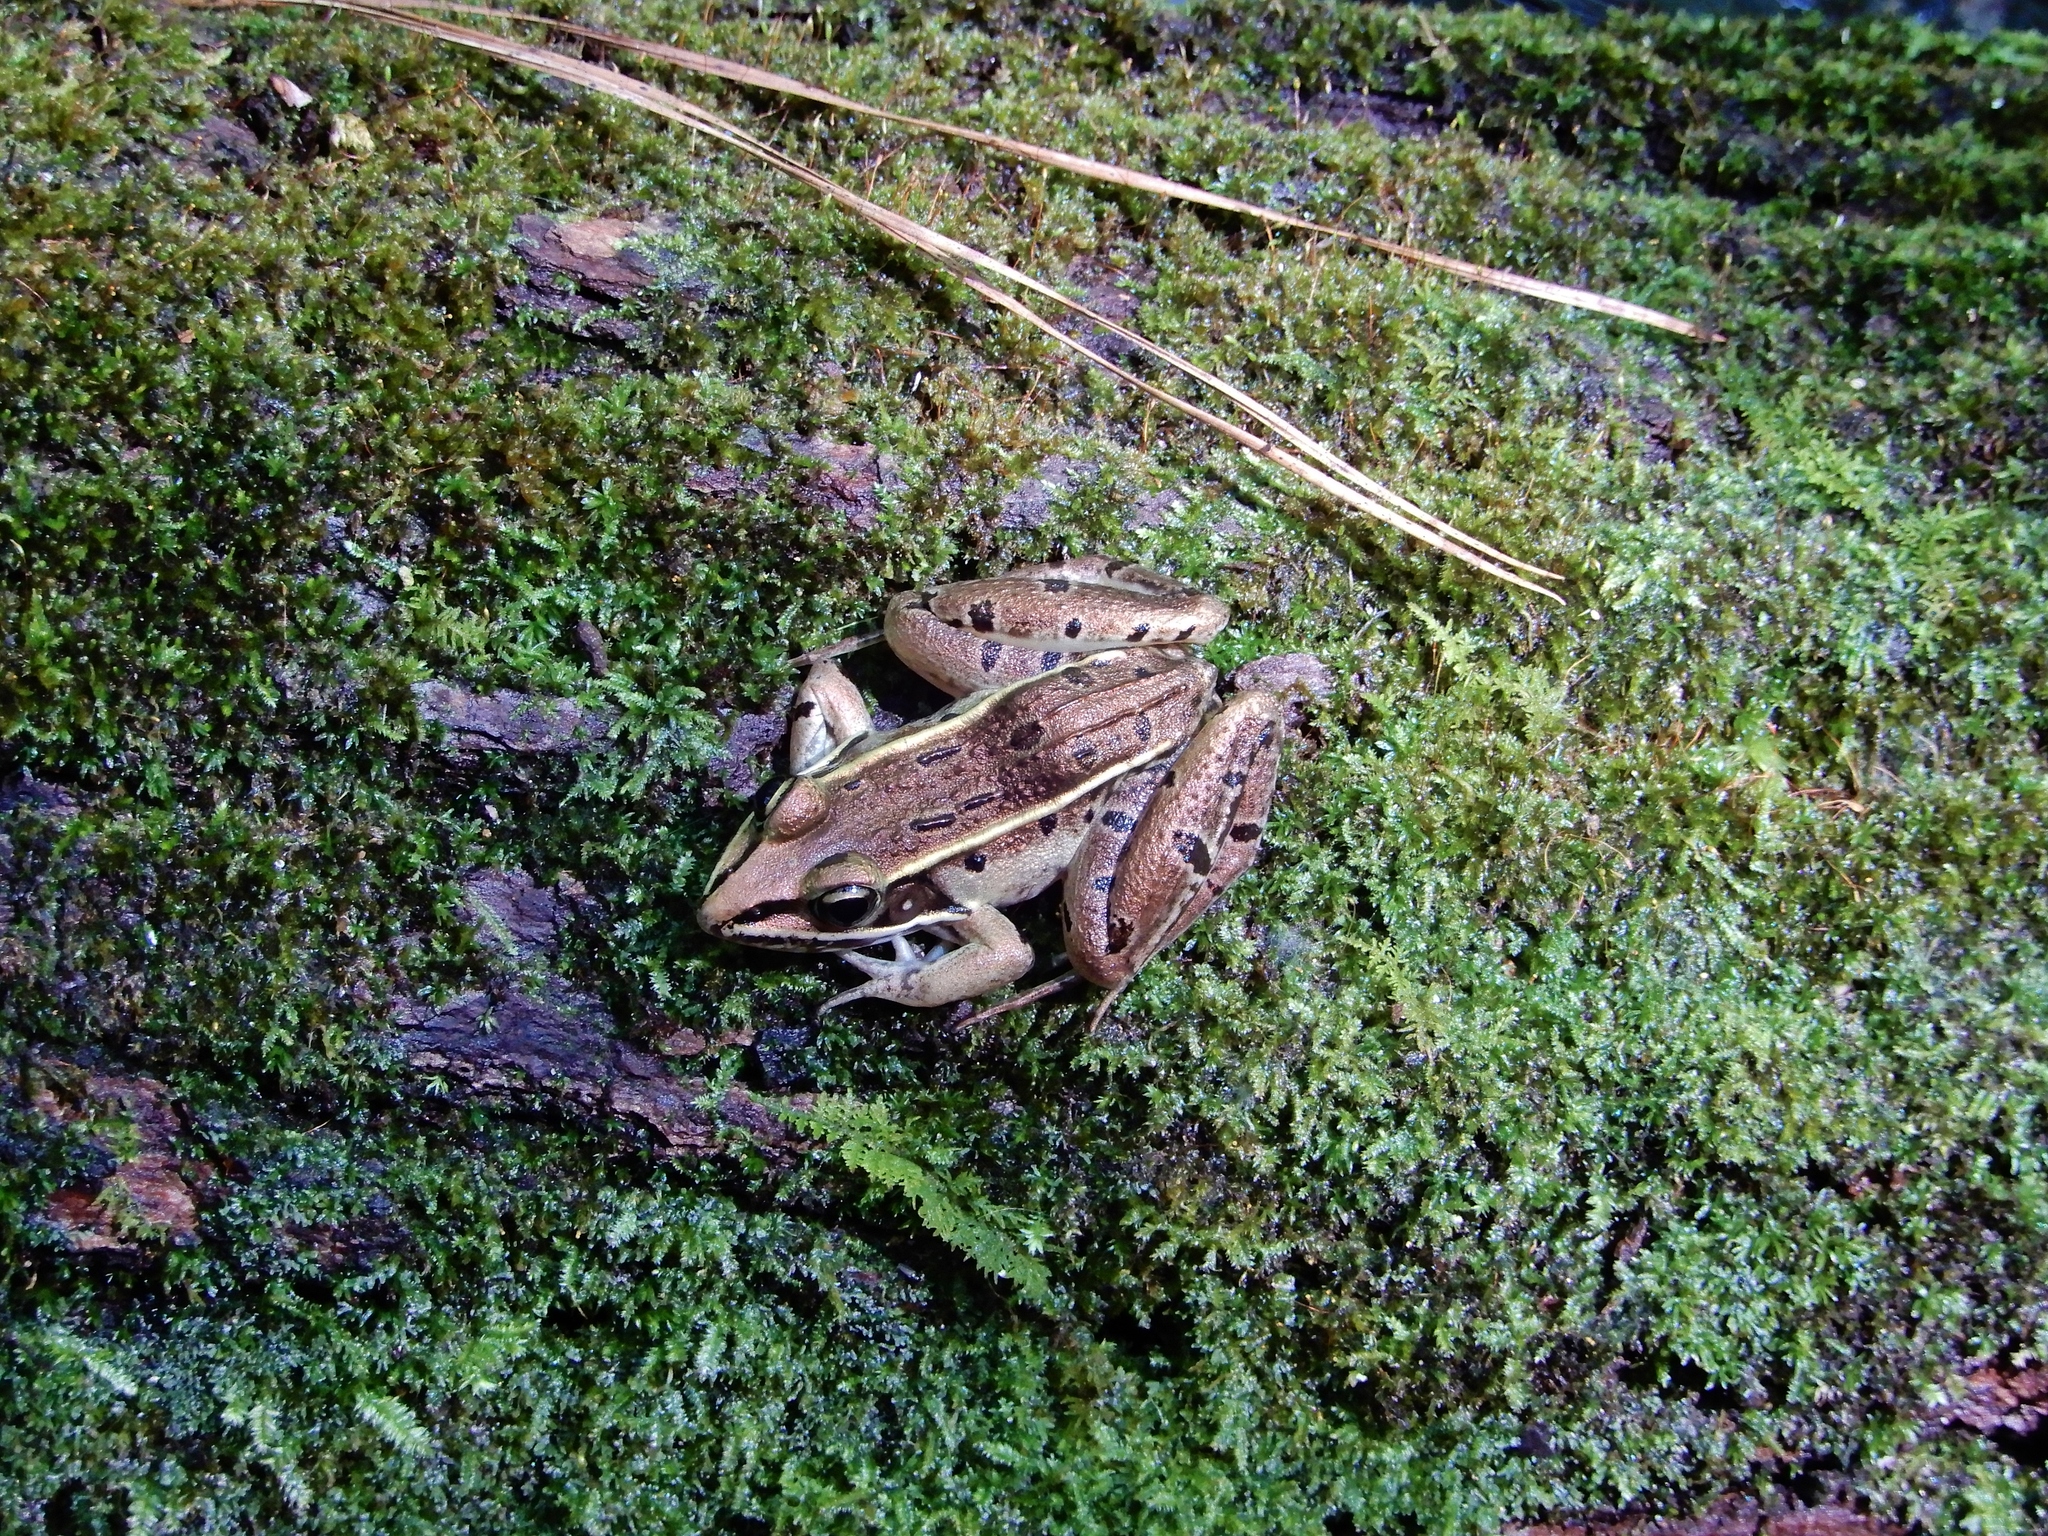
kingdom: Animalia
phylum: Chordata
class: Amphibia
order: Anura
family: Ranidae
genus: Lithobates
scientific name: Lithobates sphenocephalus
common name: Southern leopard frog
